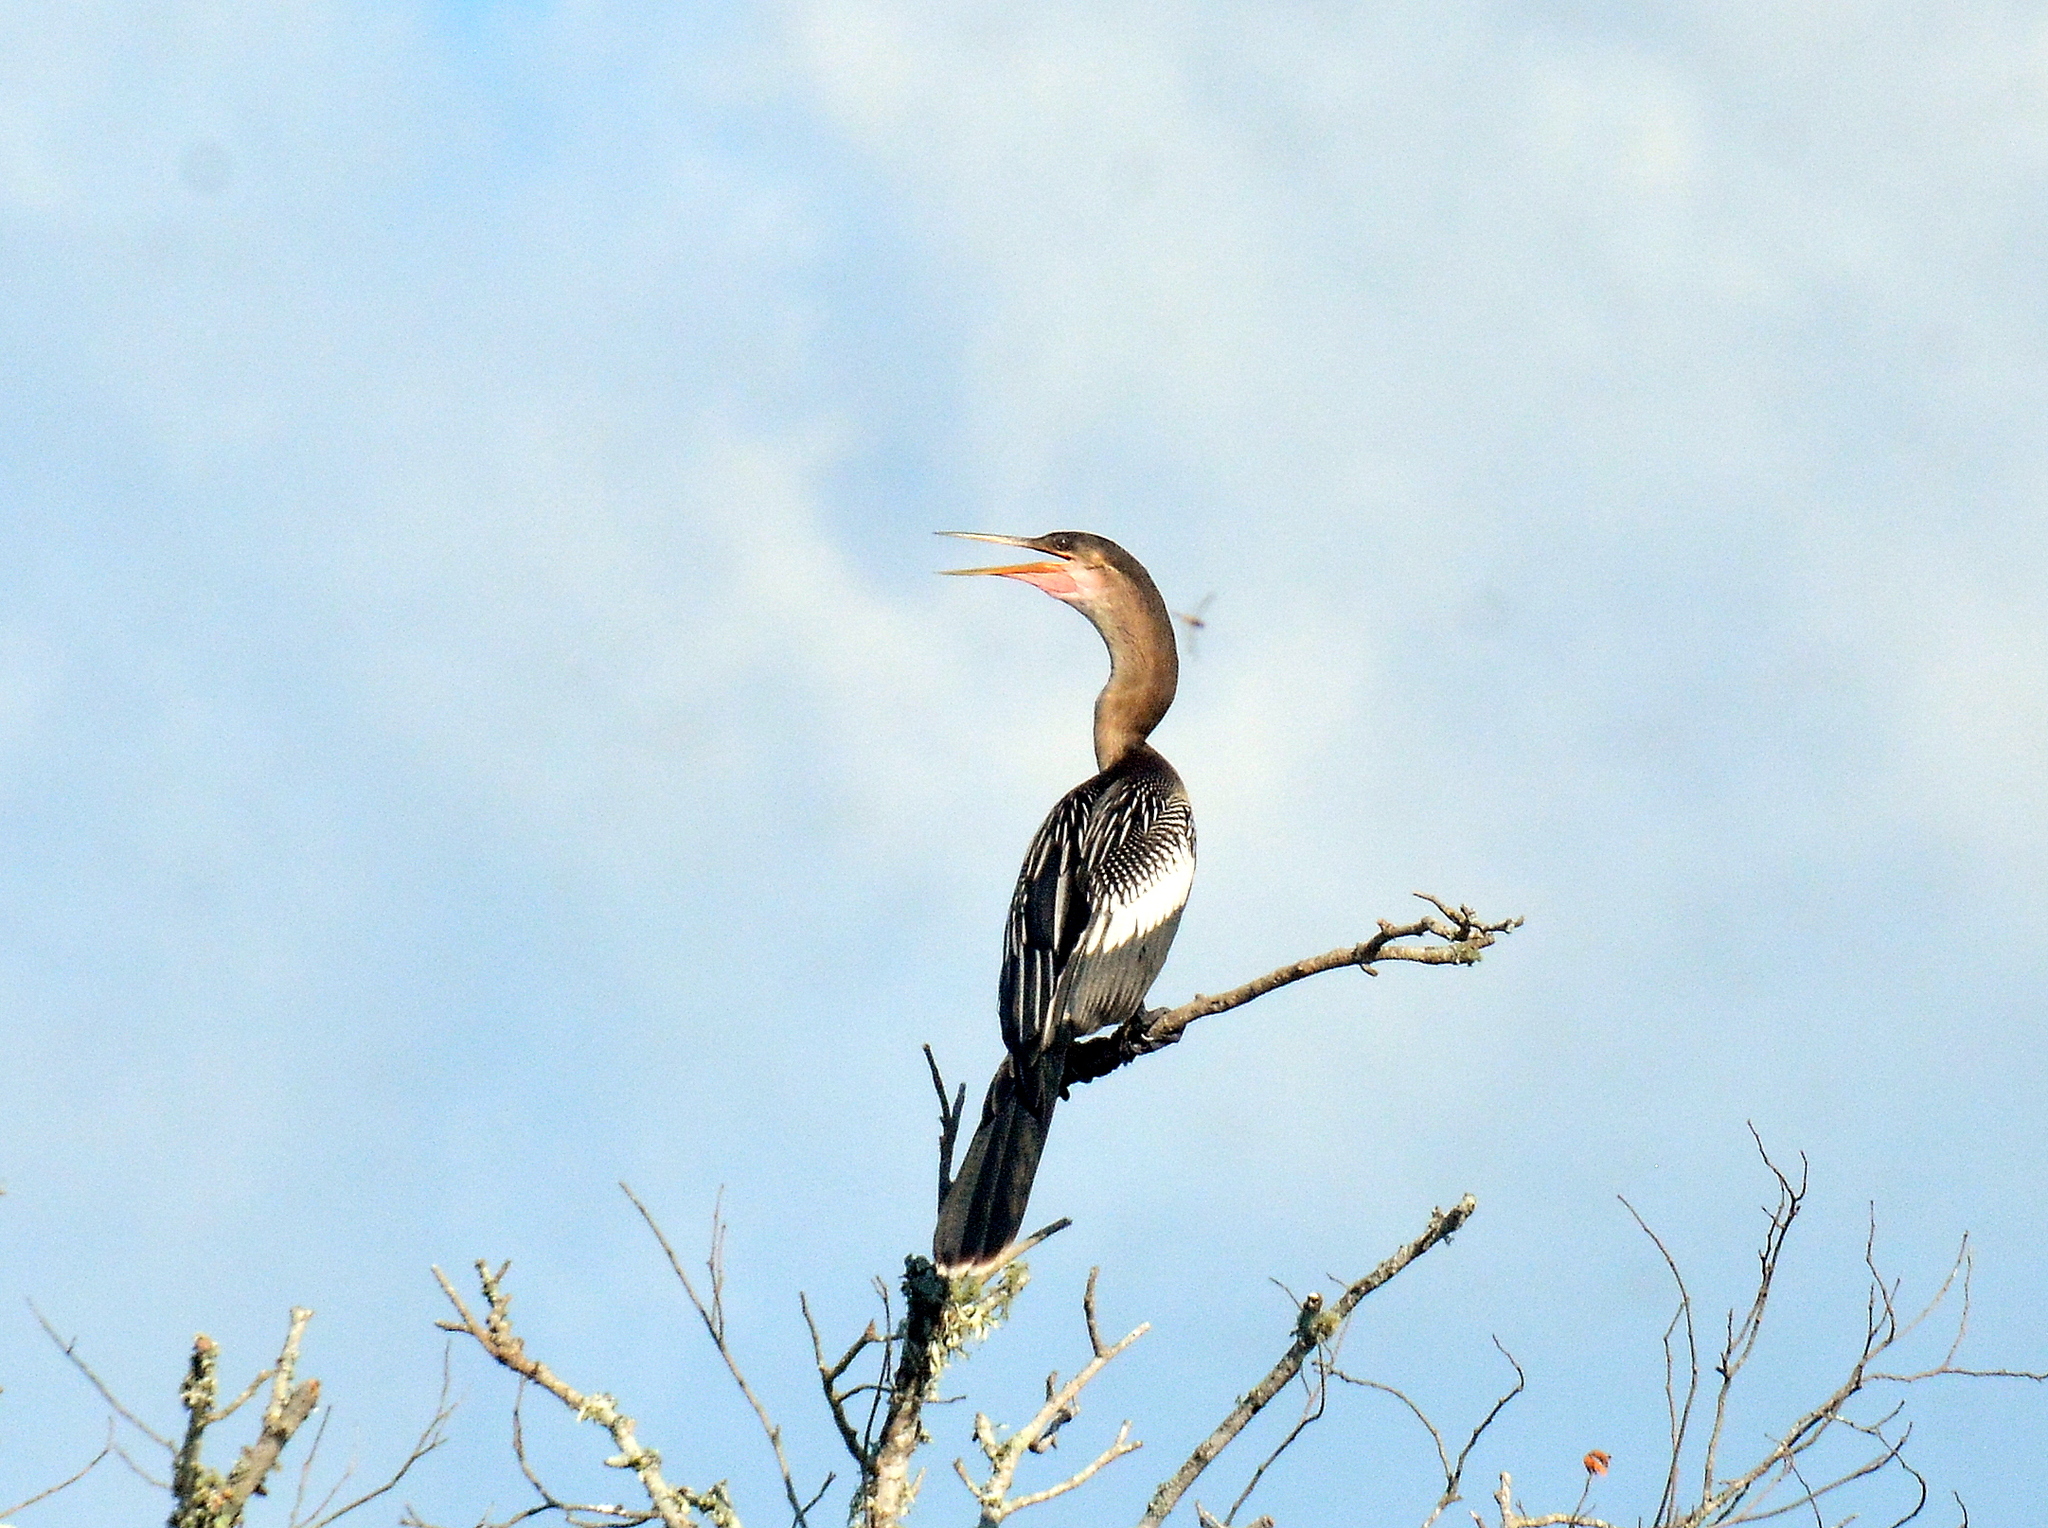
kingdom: Animalia
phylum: Chordata
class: Aves
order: Suliformes
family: Anhingidae
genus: Anhinga
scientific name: Anhinga anhinga
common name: Anhinga
